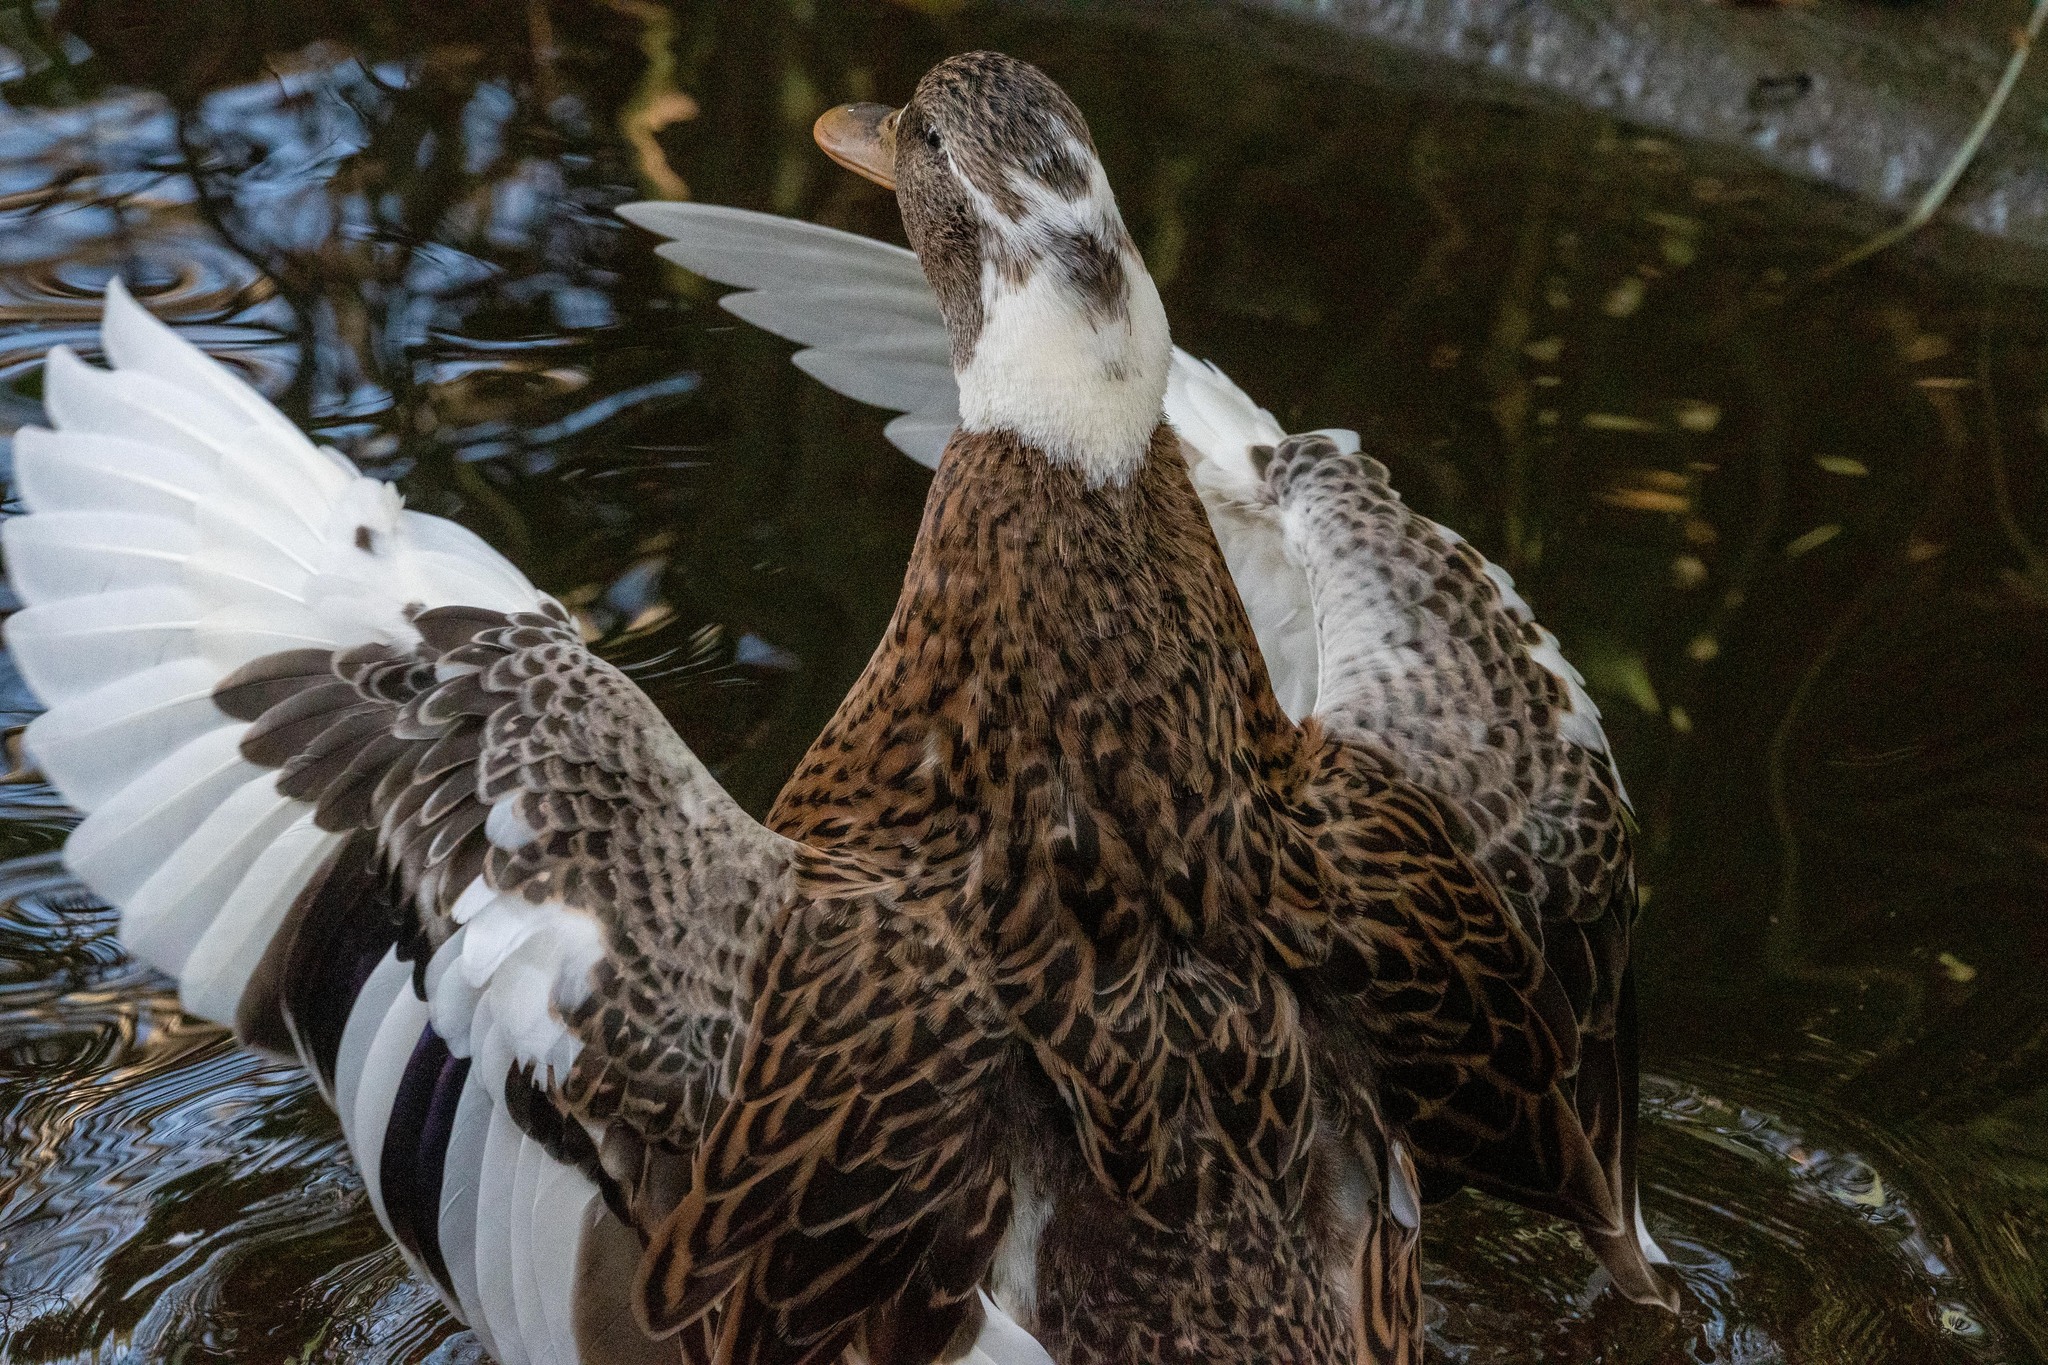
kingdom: Animalia
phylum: Chordata
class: Aves
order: Anseriformes
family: Anatidae
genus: Anas
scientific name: Anas platyrhynchos
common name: Mallard
